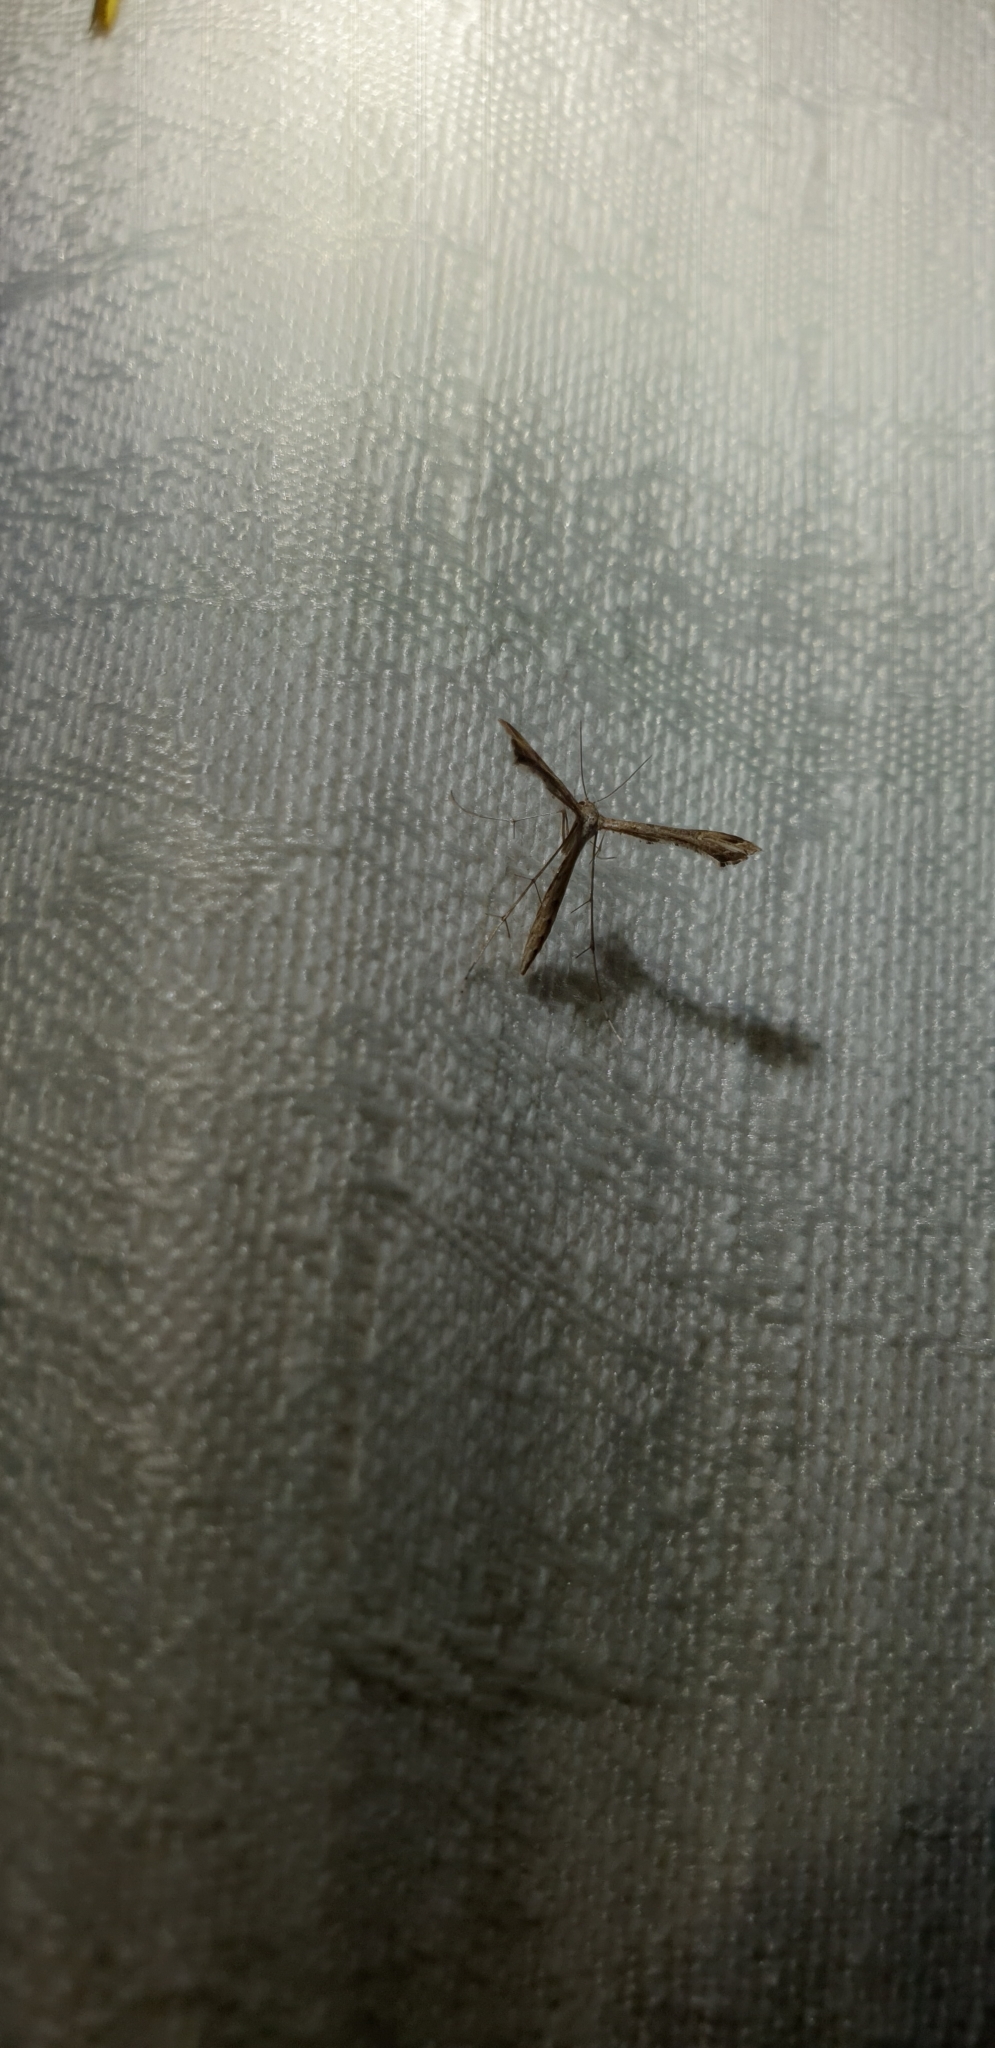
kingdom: Animalia
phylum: Arthropoda
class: Insecta
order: Lepidoptera
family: Pterophoridae
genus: Stenoptilodes
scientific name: Stenoptilodes taprobanes
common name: Moth
